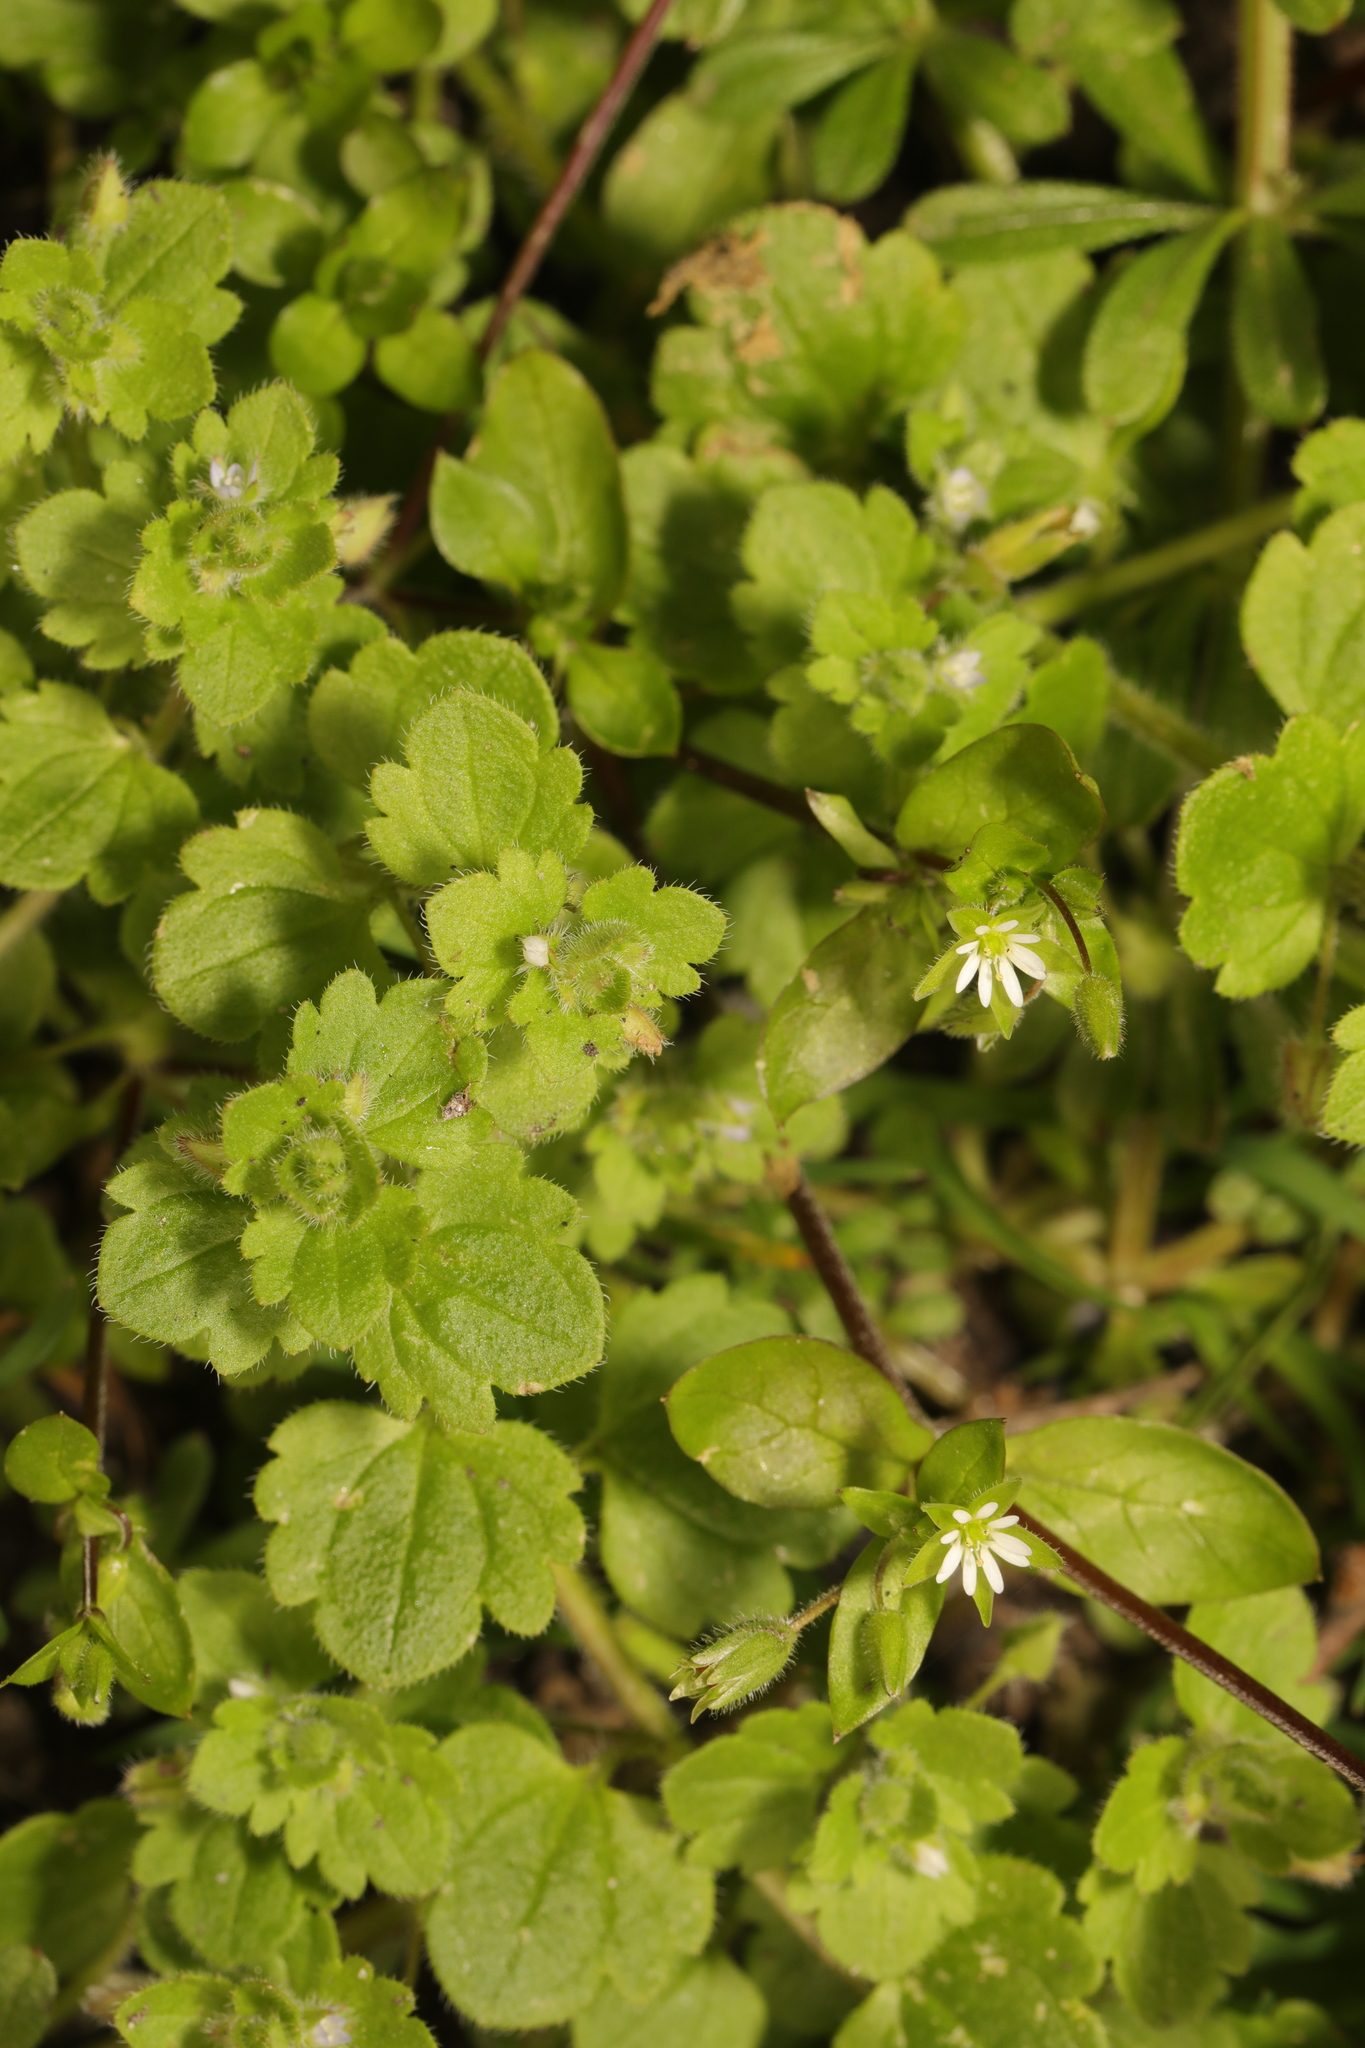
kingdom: Plantae
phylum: Tracheophyta
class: Magnoliopsida
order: Lamiales
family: Plantaginaceae
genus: Veronica
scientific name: Veronica sublobata
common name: False ivy-leaved speedwell
